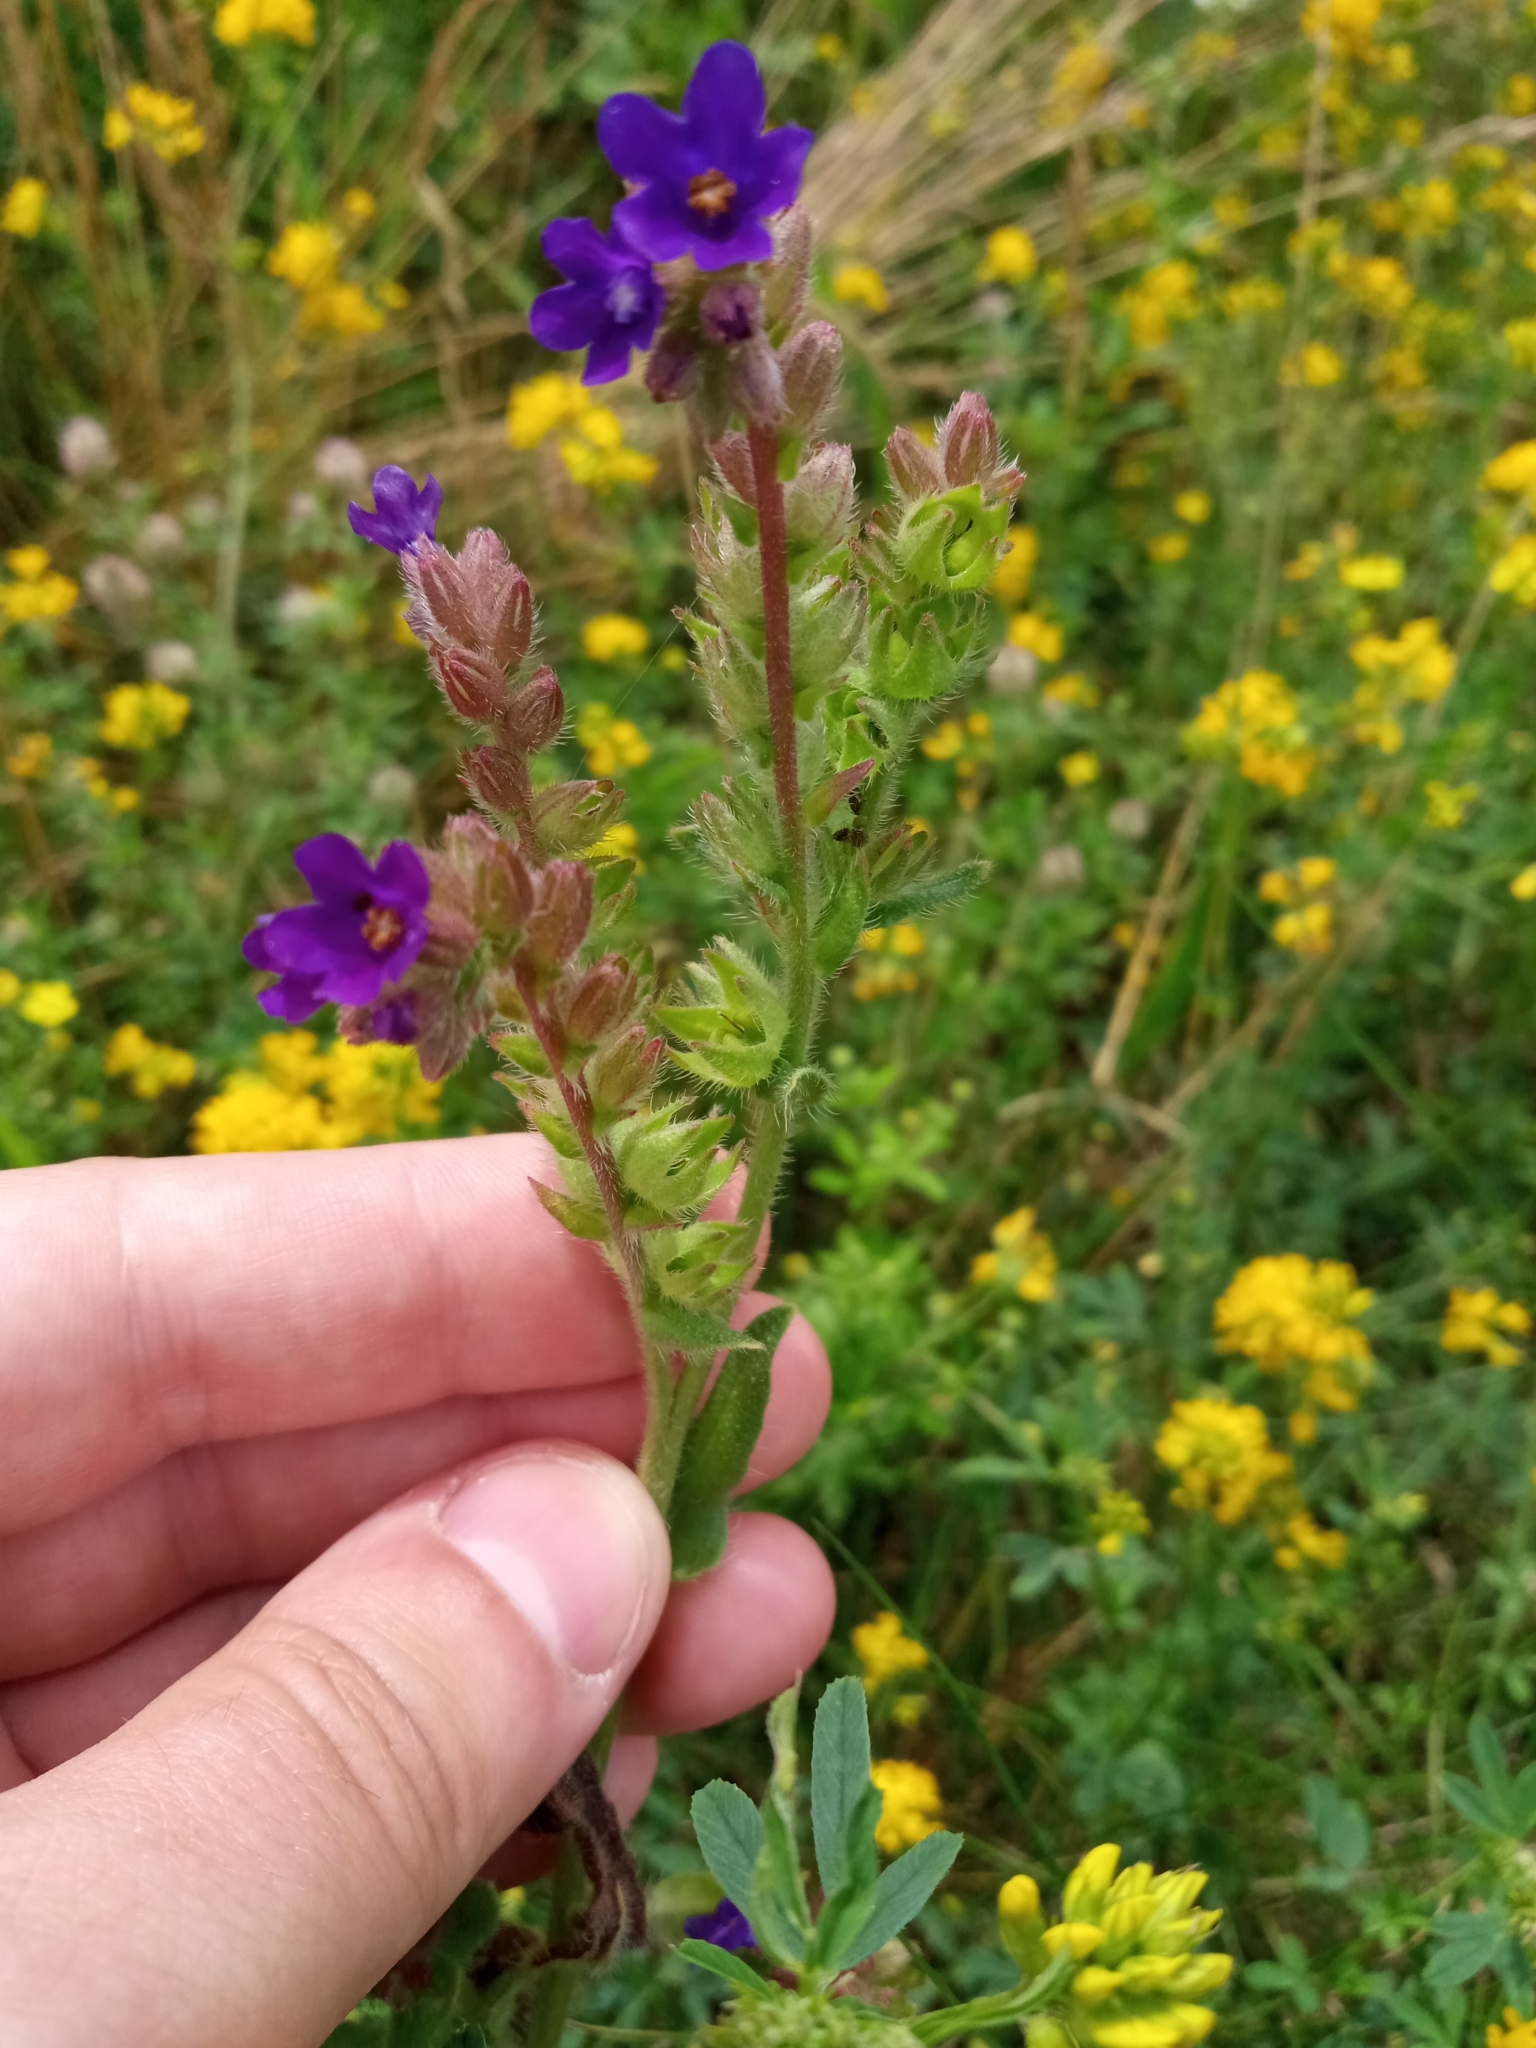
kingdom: Plantae
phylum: Tracheophyta
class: Magnoliopsida
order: Boraginales
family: Boraginaceae
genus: Anchusa
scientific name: Anchusa officinalis
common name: Alkanet
